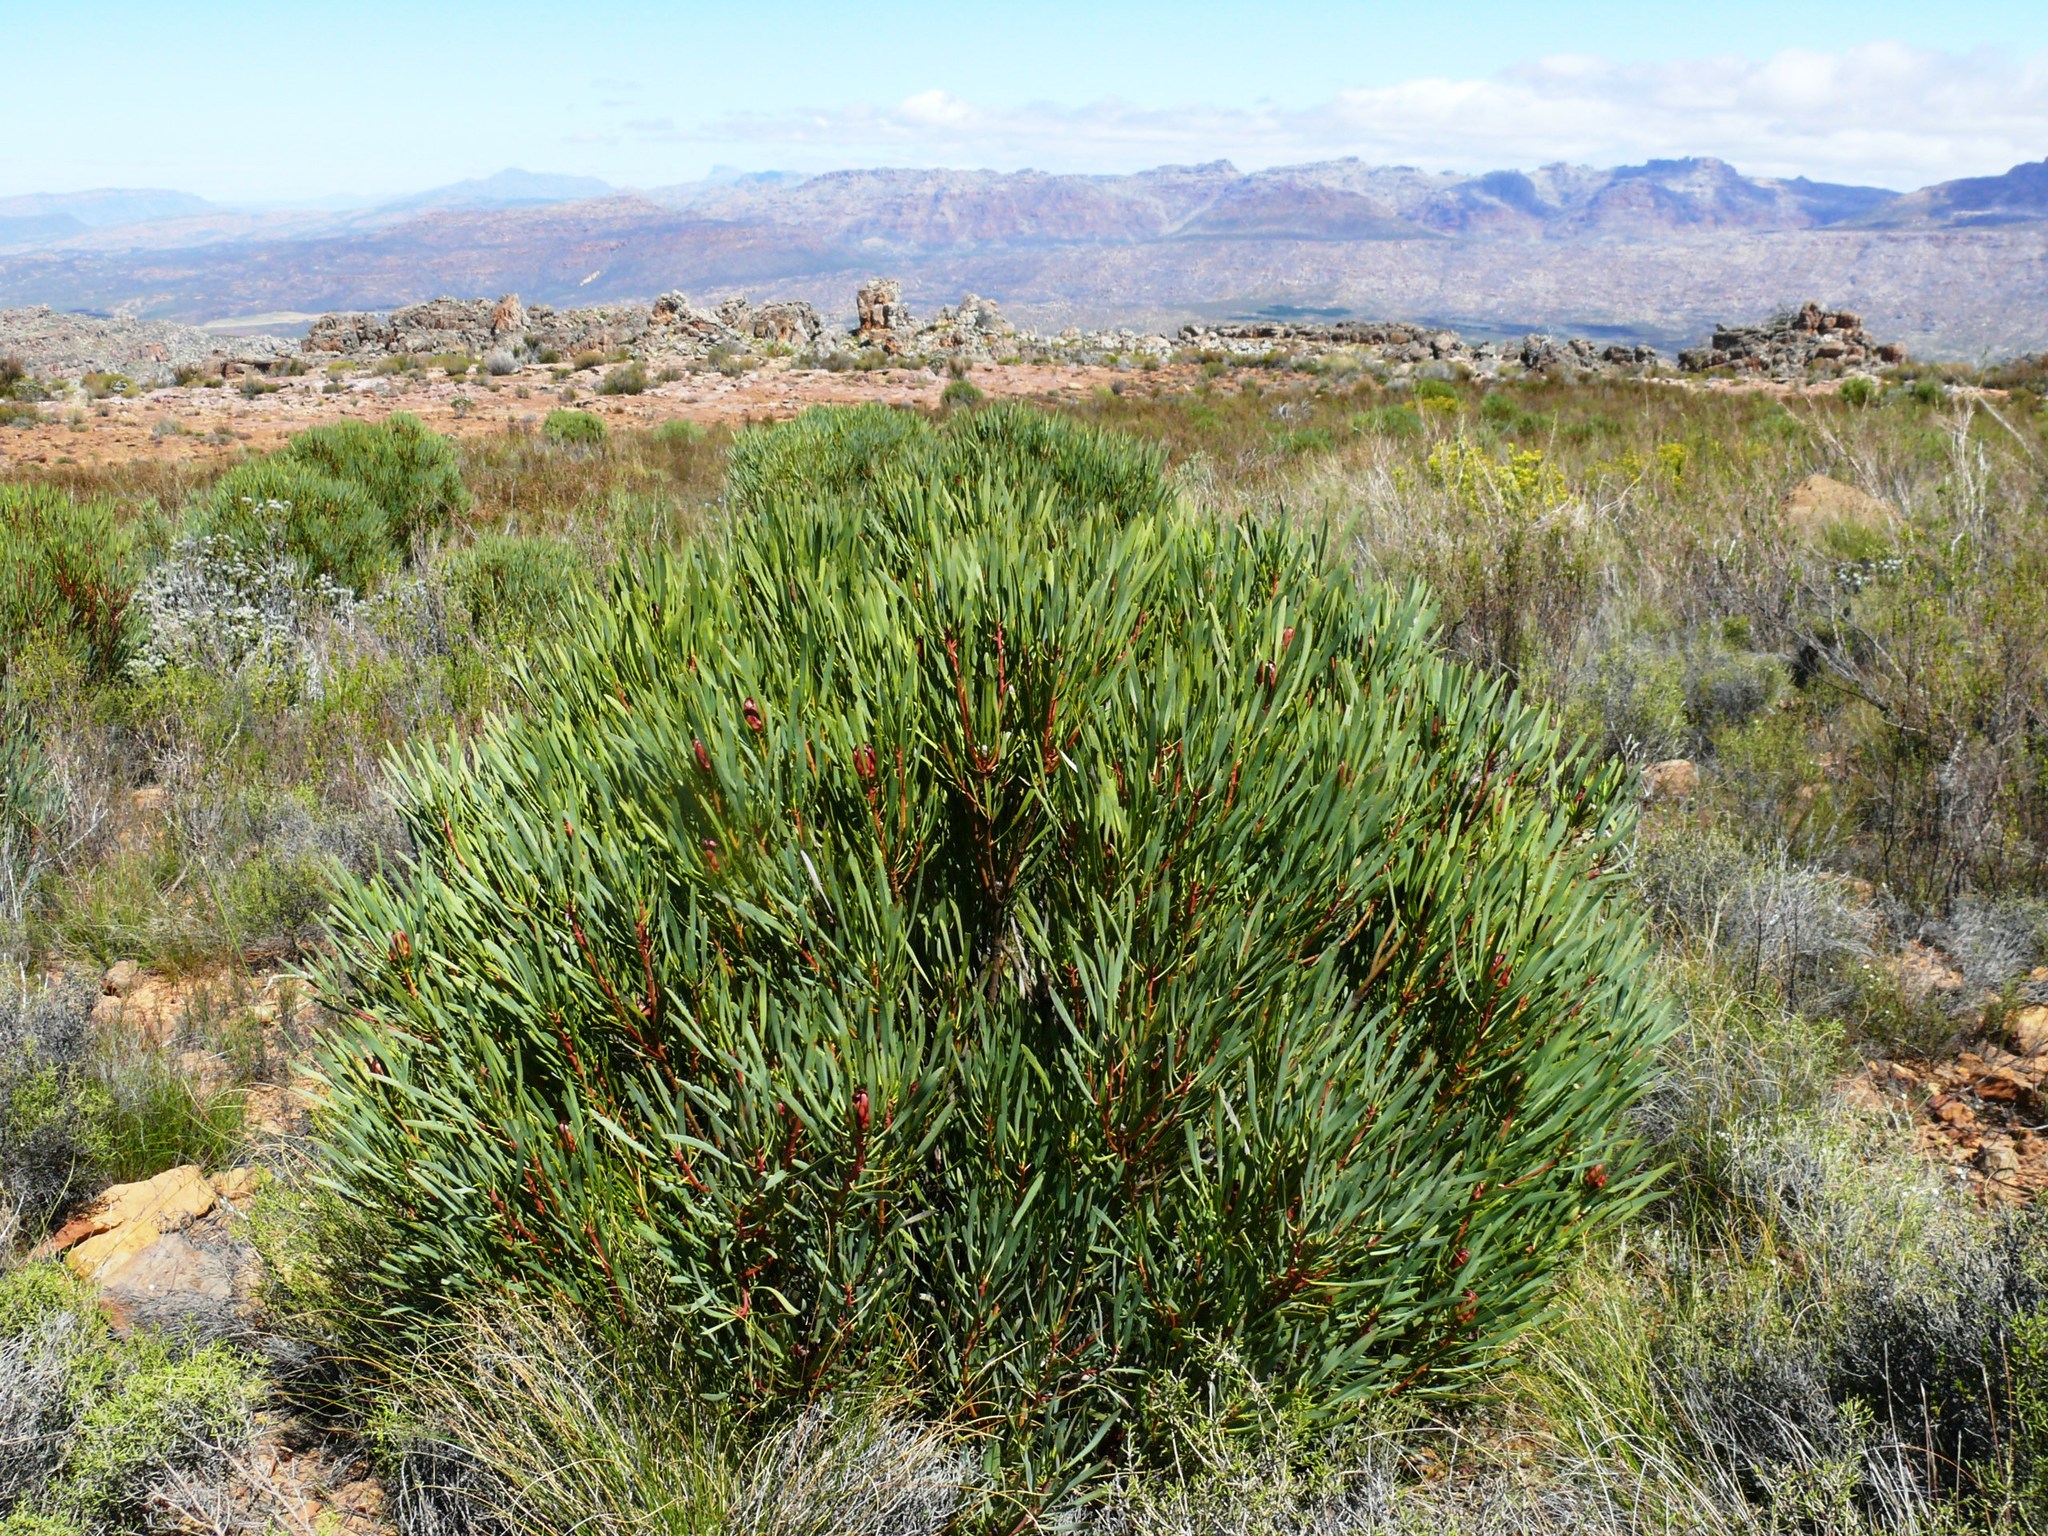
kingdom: Plantae
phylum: Tracheophyta
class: Magnoliopsida
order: Proteales
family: Proteaceae
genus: Protea
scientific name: Protea acuminata
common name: Black-rim sugarbush
